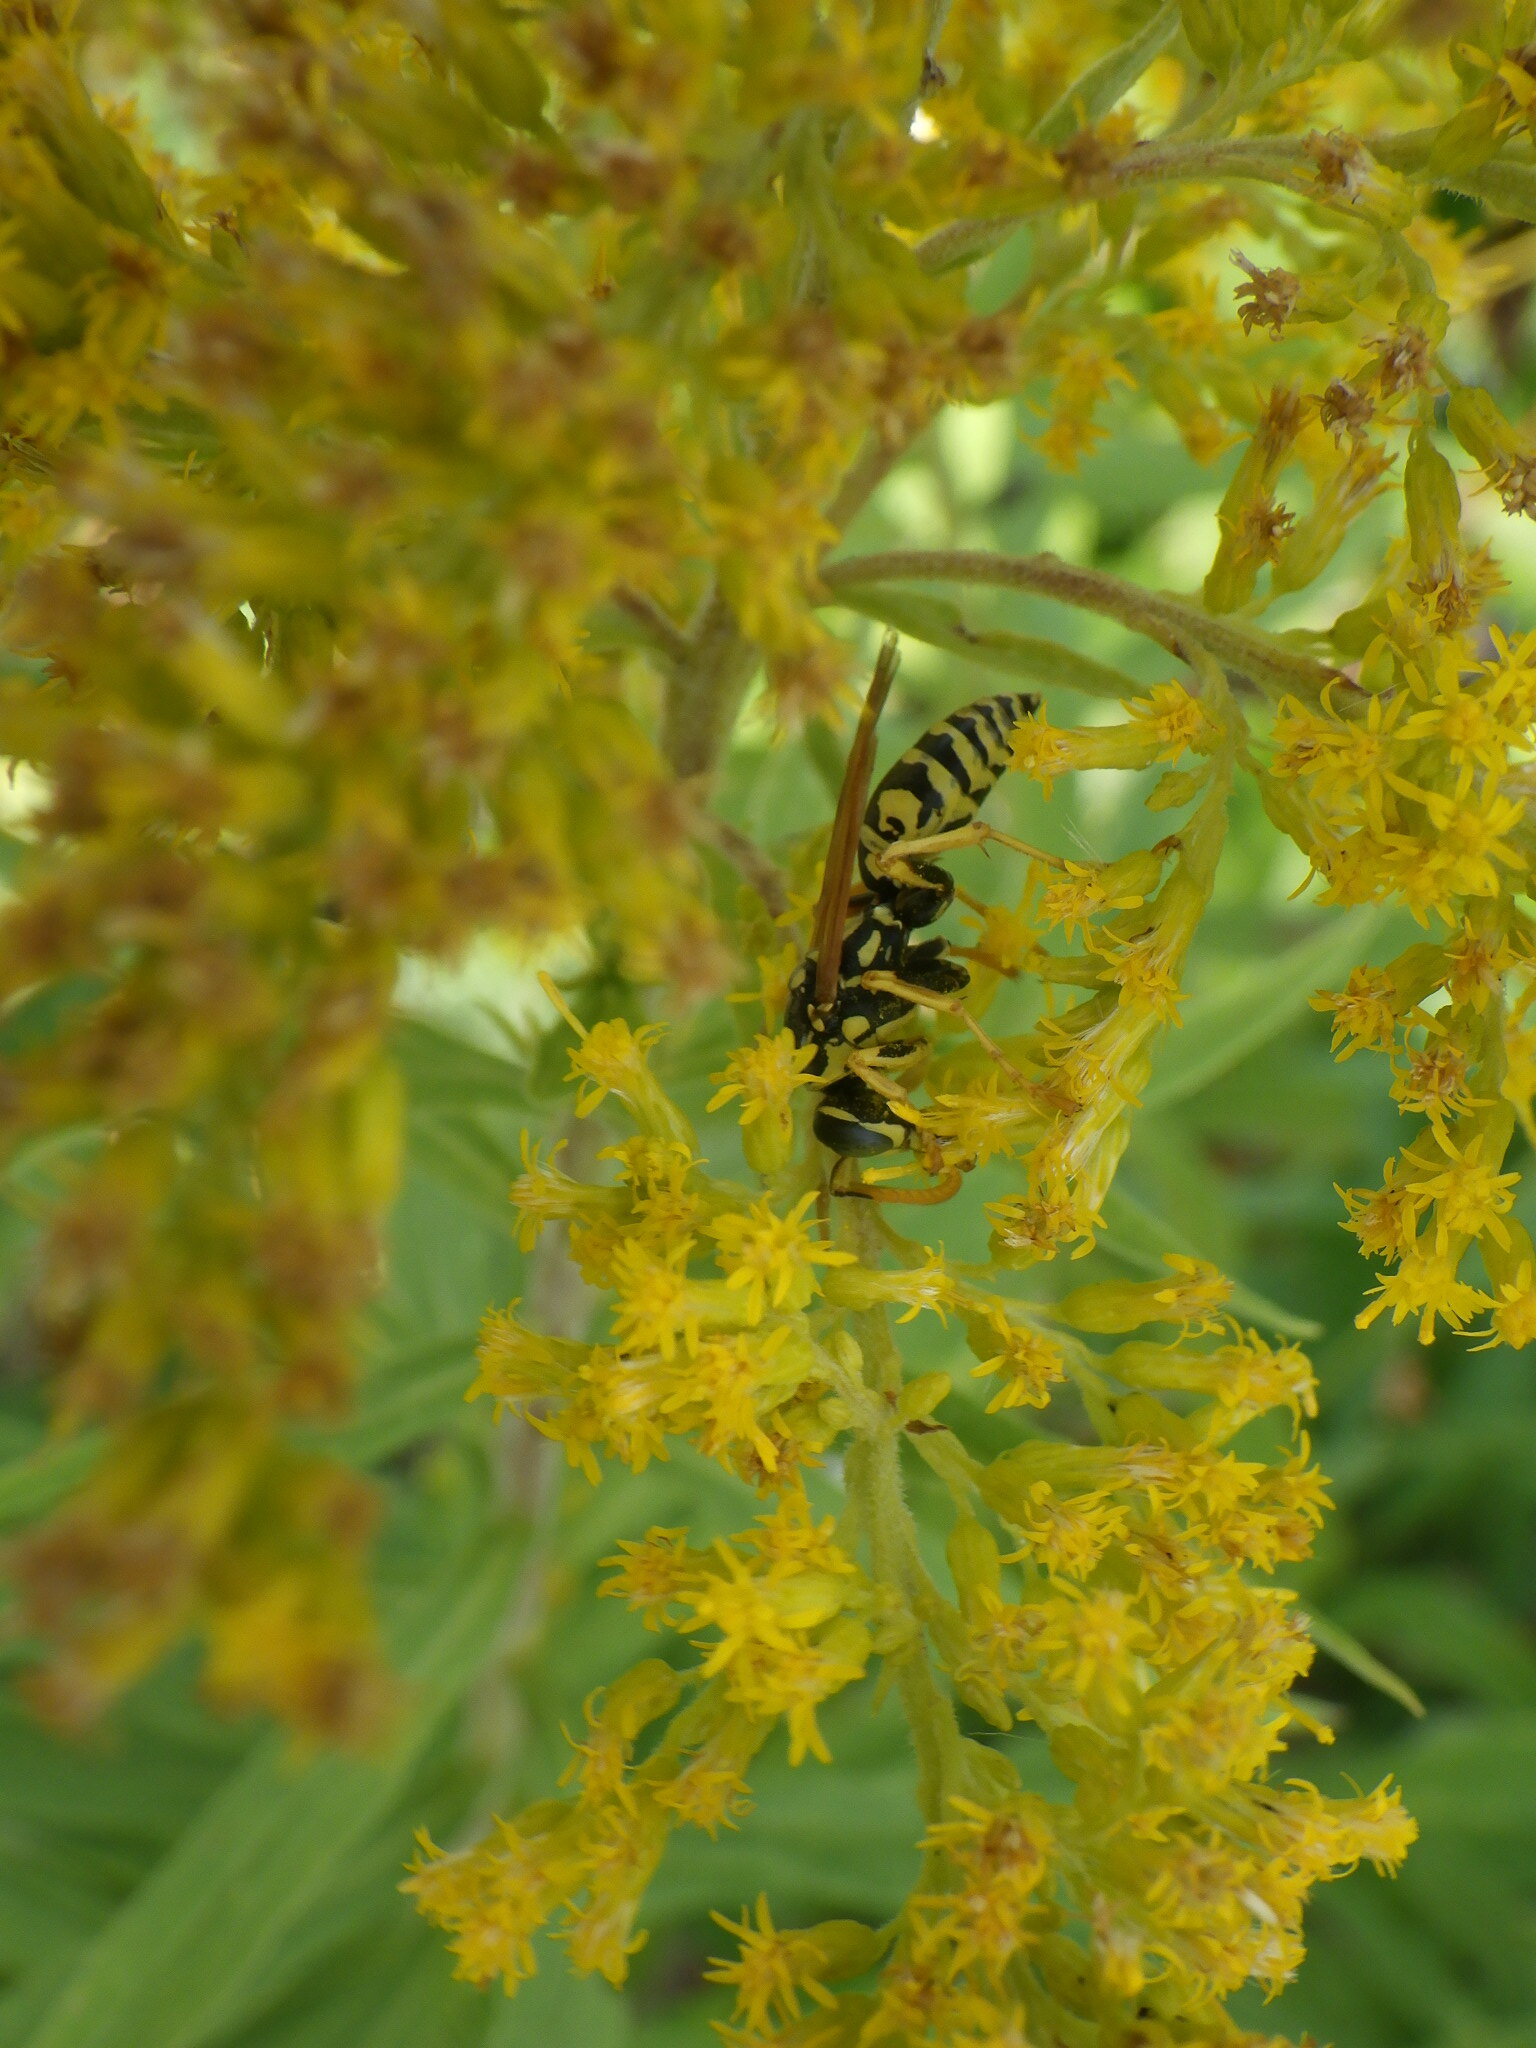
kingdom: Animalia
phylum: Arthropoda
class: Insecta
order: Hymenoptera
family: Eumenidae
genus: Polistes
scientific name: Polistes dominula
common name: Paper wasp
